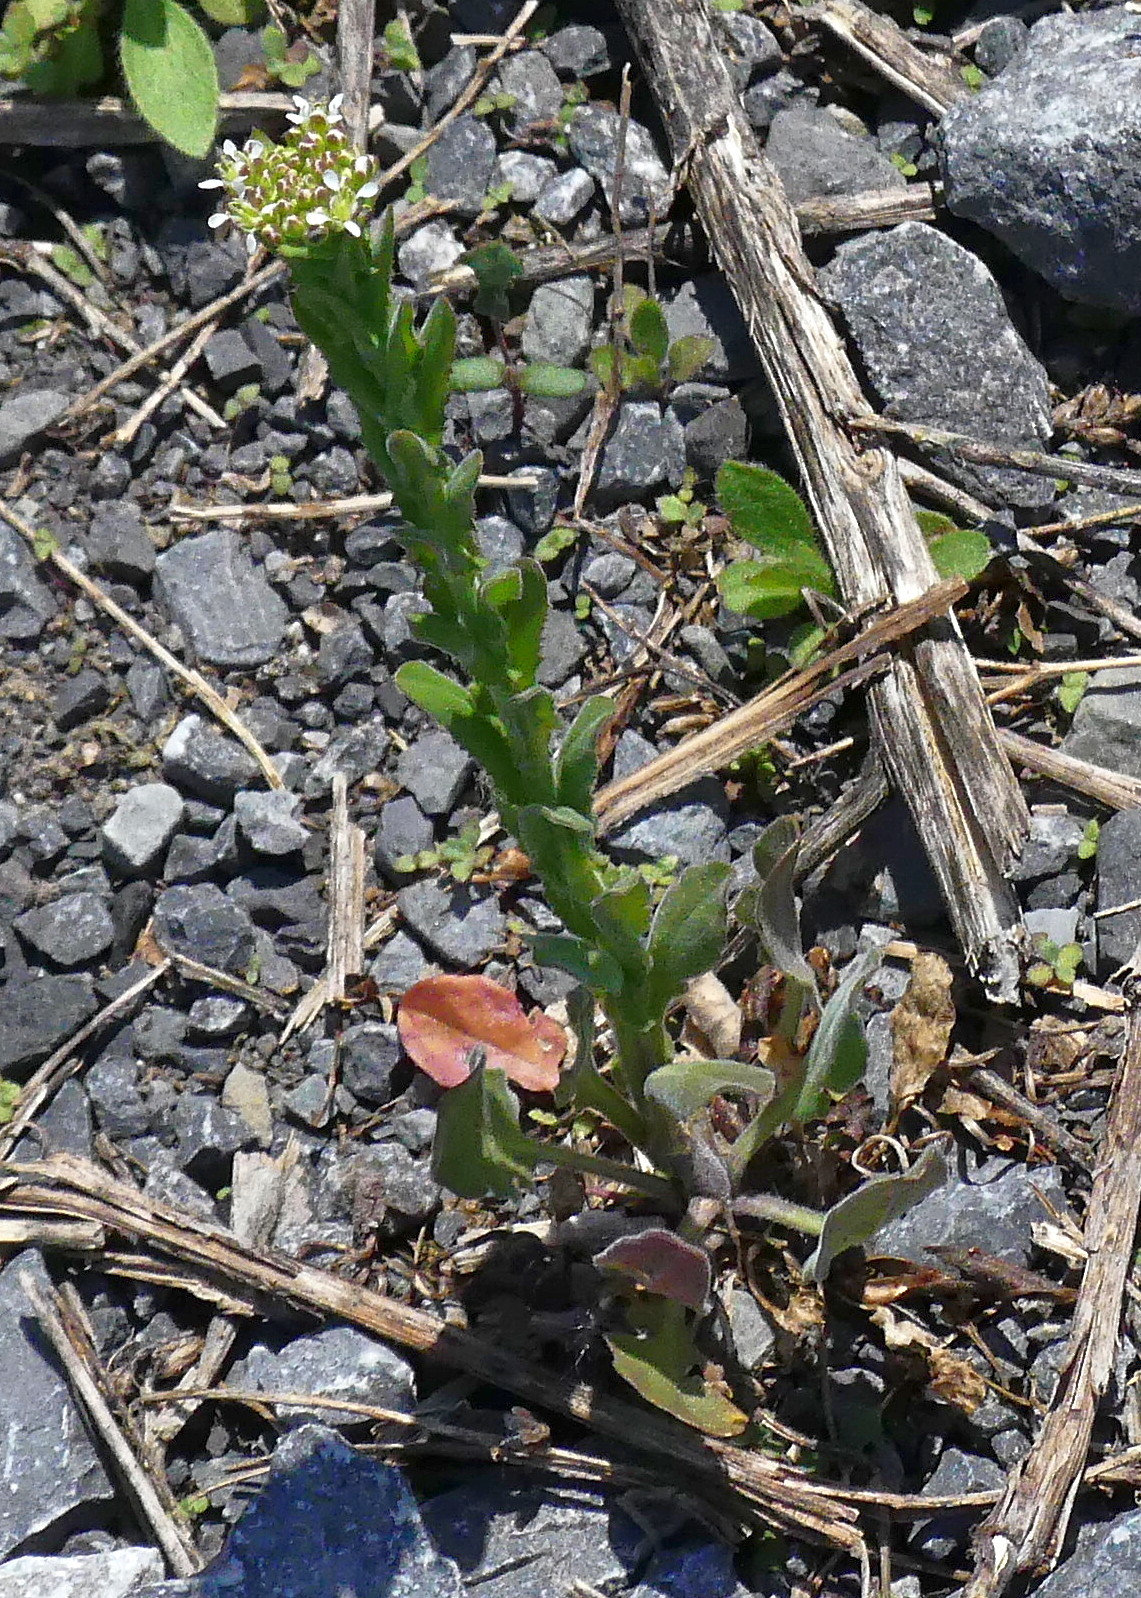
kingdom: Plantae
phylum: Tracheophyta
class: Magnoliopsida
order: Brassicales
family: Brassicaceae
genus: Lepidium
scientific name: Lepidium campestre
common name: Field pepperwort
